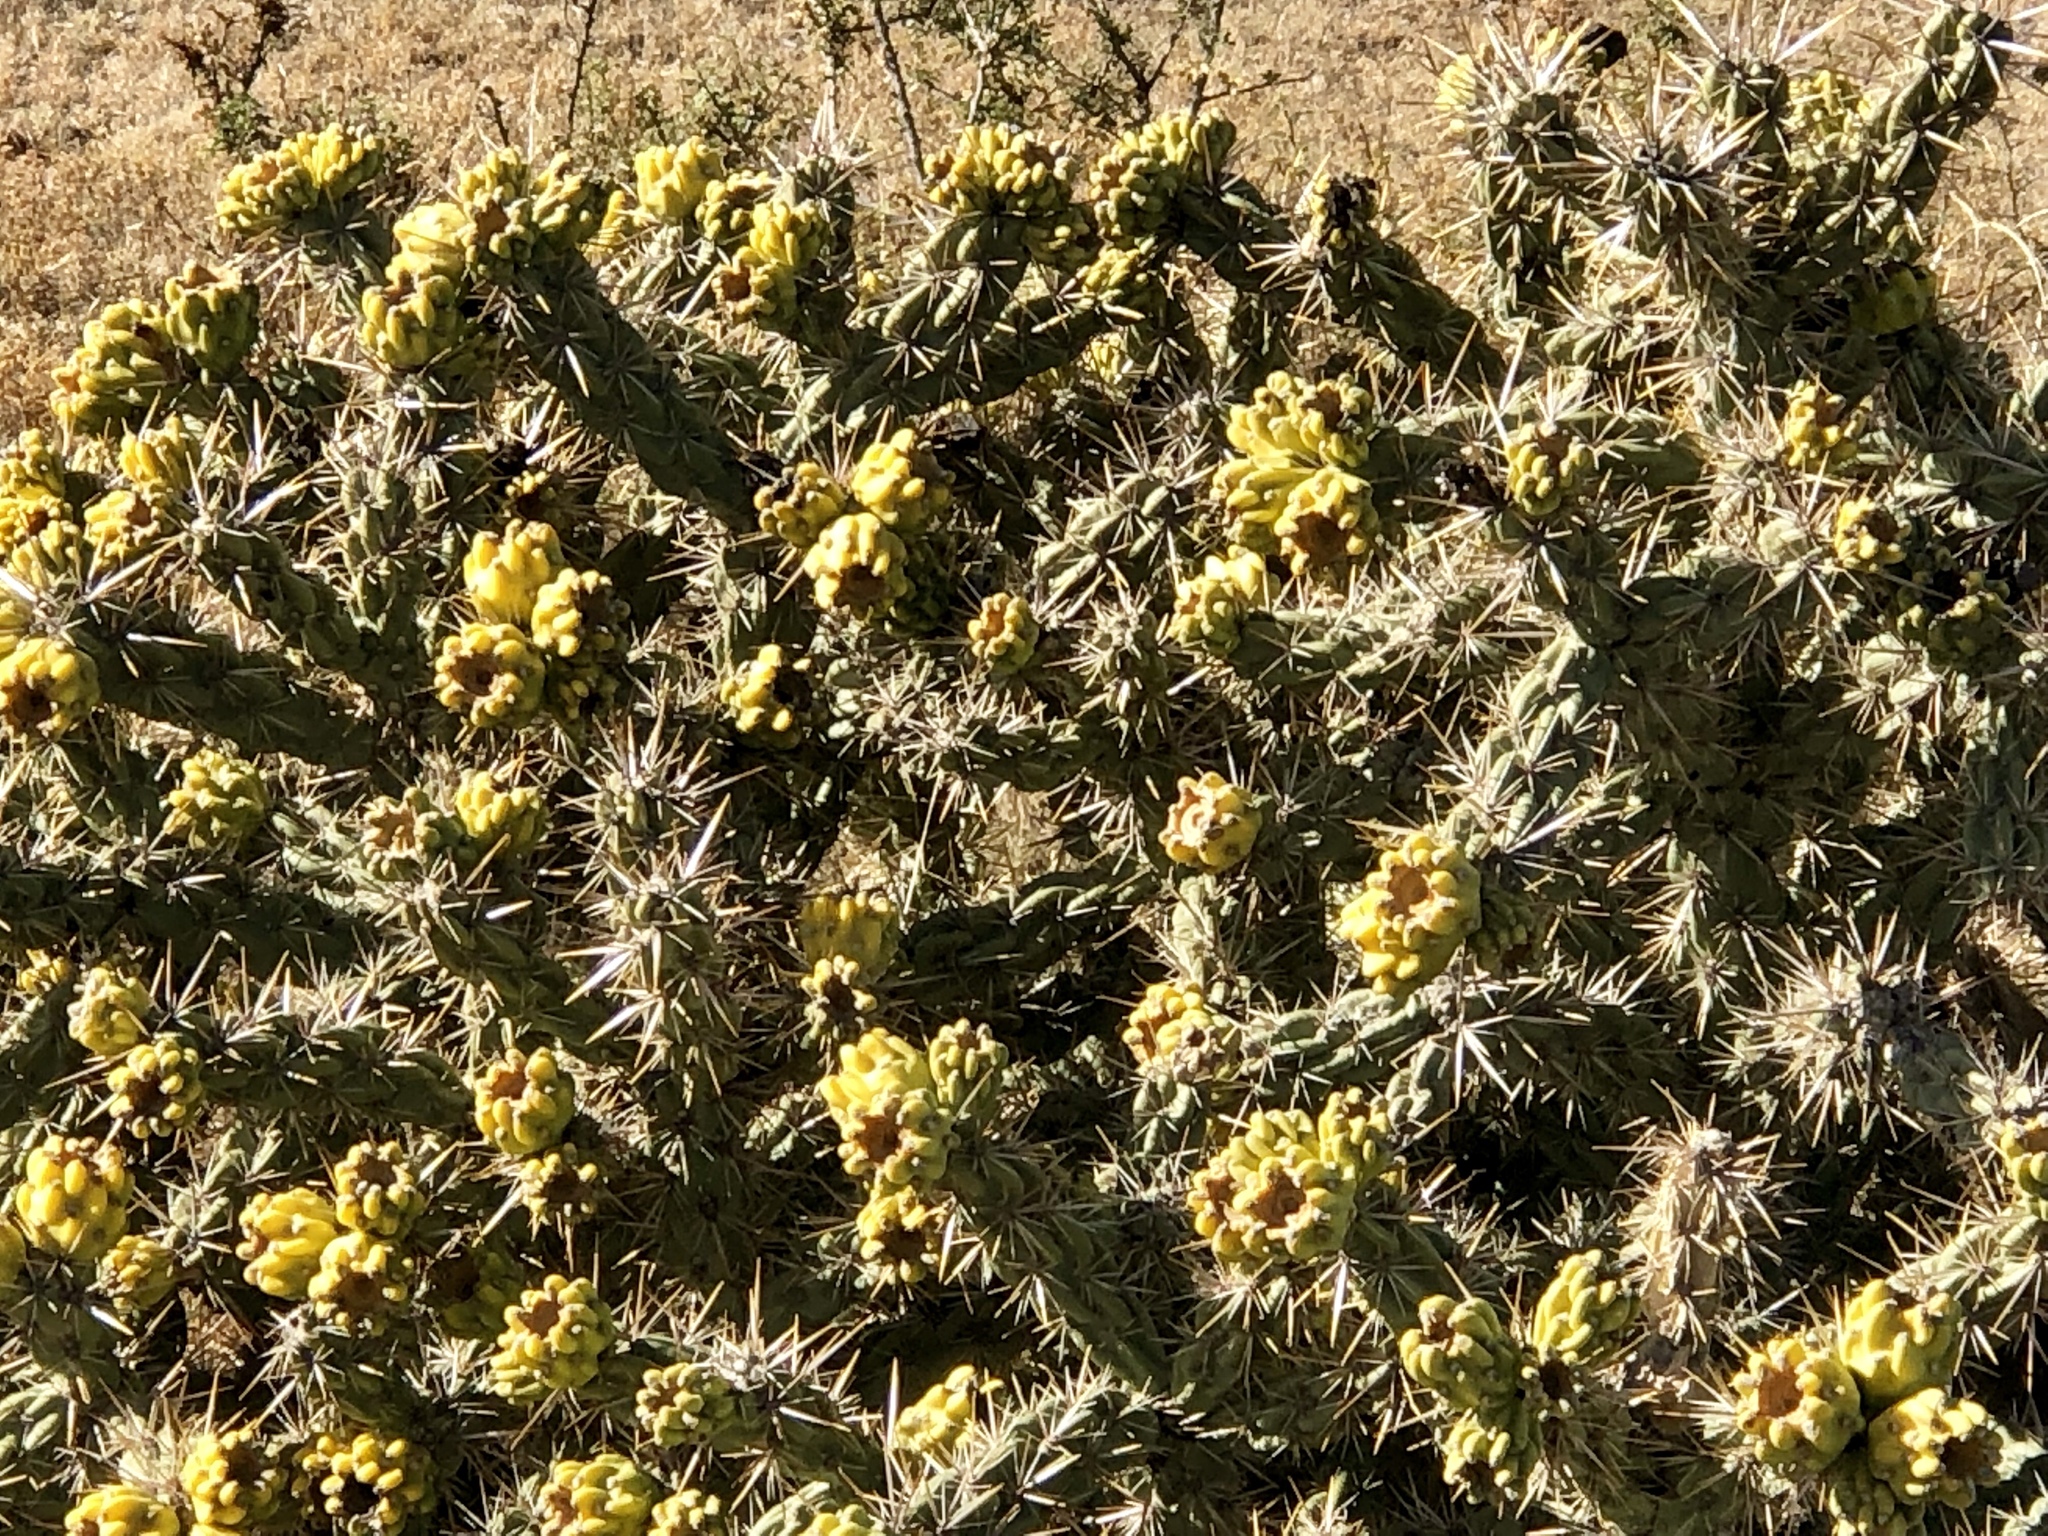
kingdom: Plantae
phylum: Tracheophyta
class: Magnoliopsida
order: Caryophyllales
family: Cactaceae
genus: Cylindropuntia
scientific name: Cylindropuntia imbricata
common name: Candelabrum cactus
